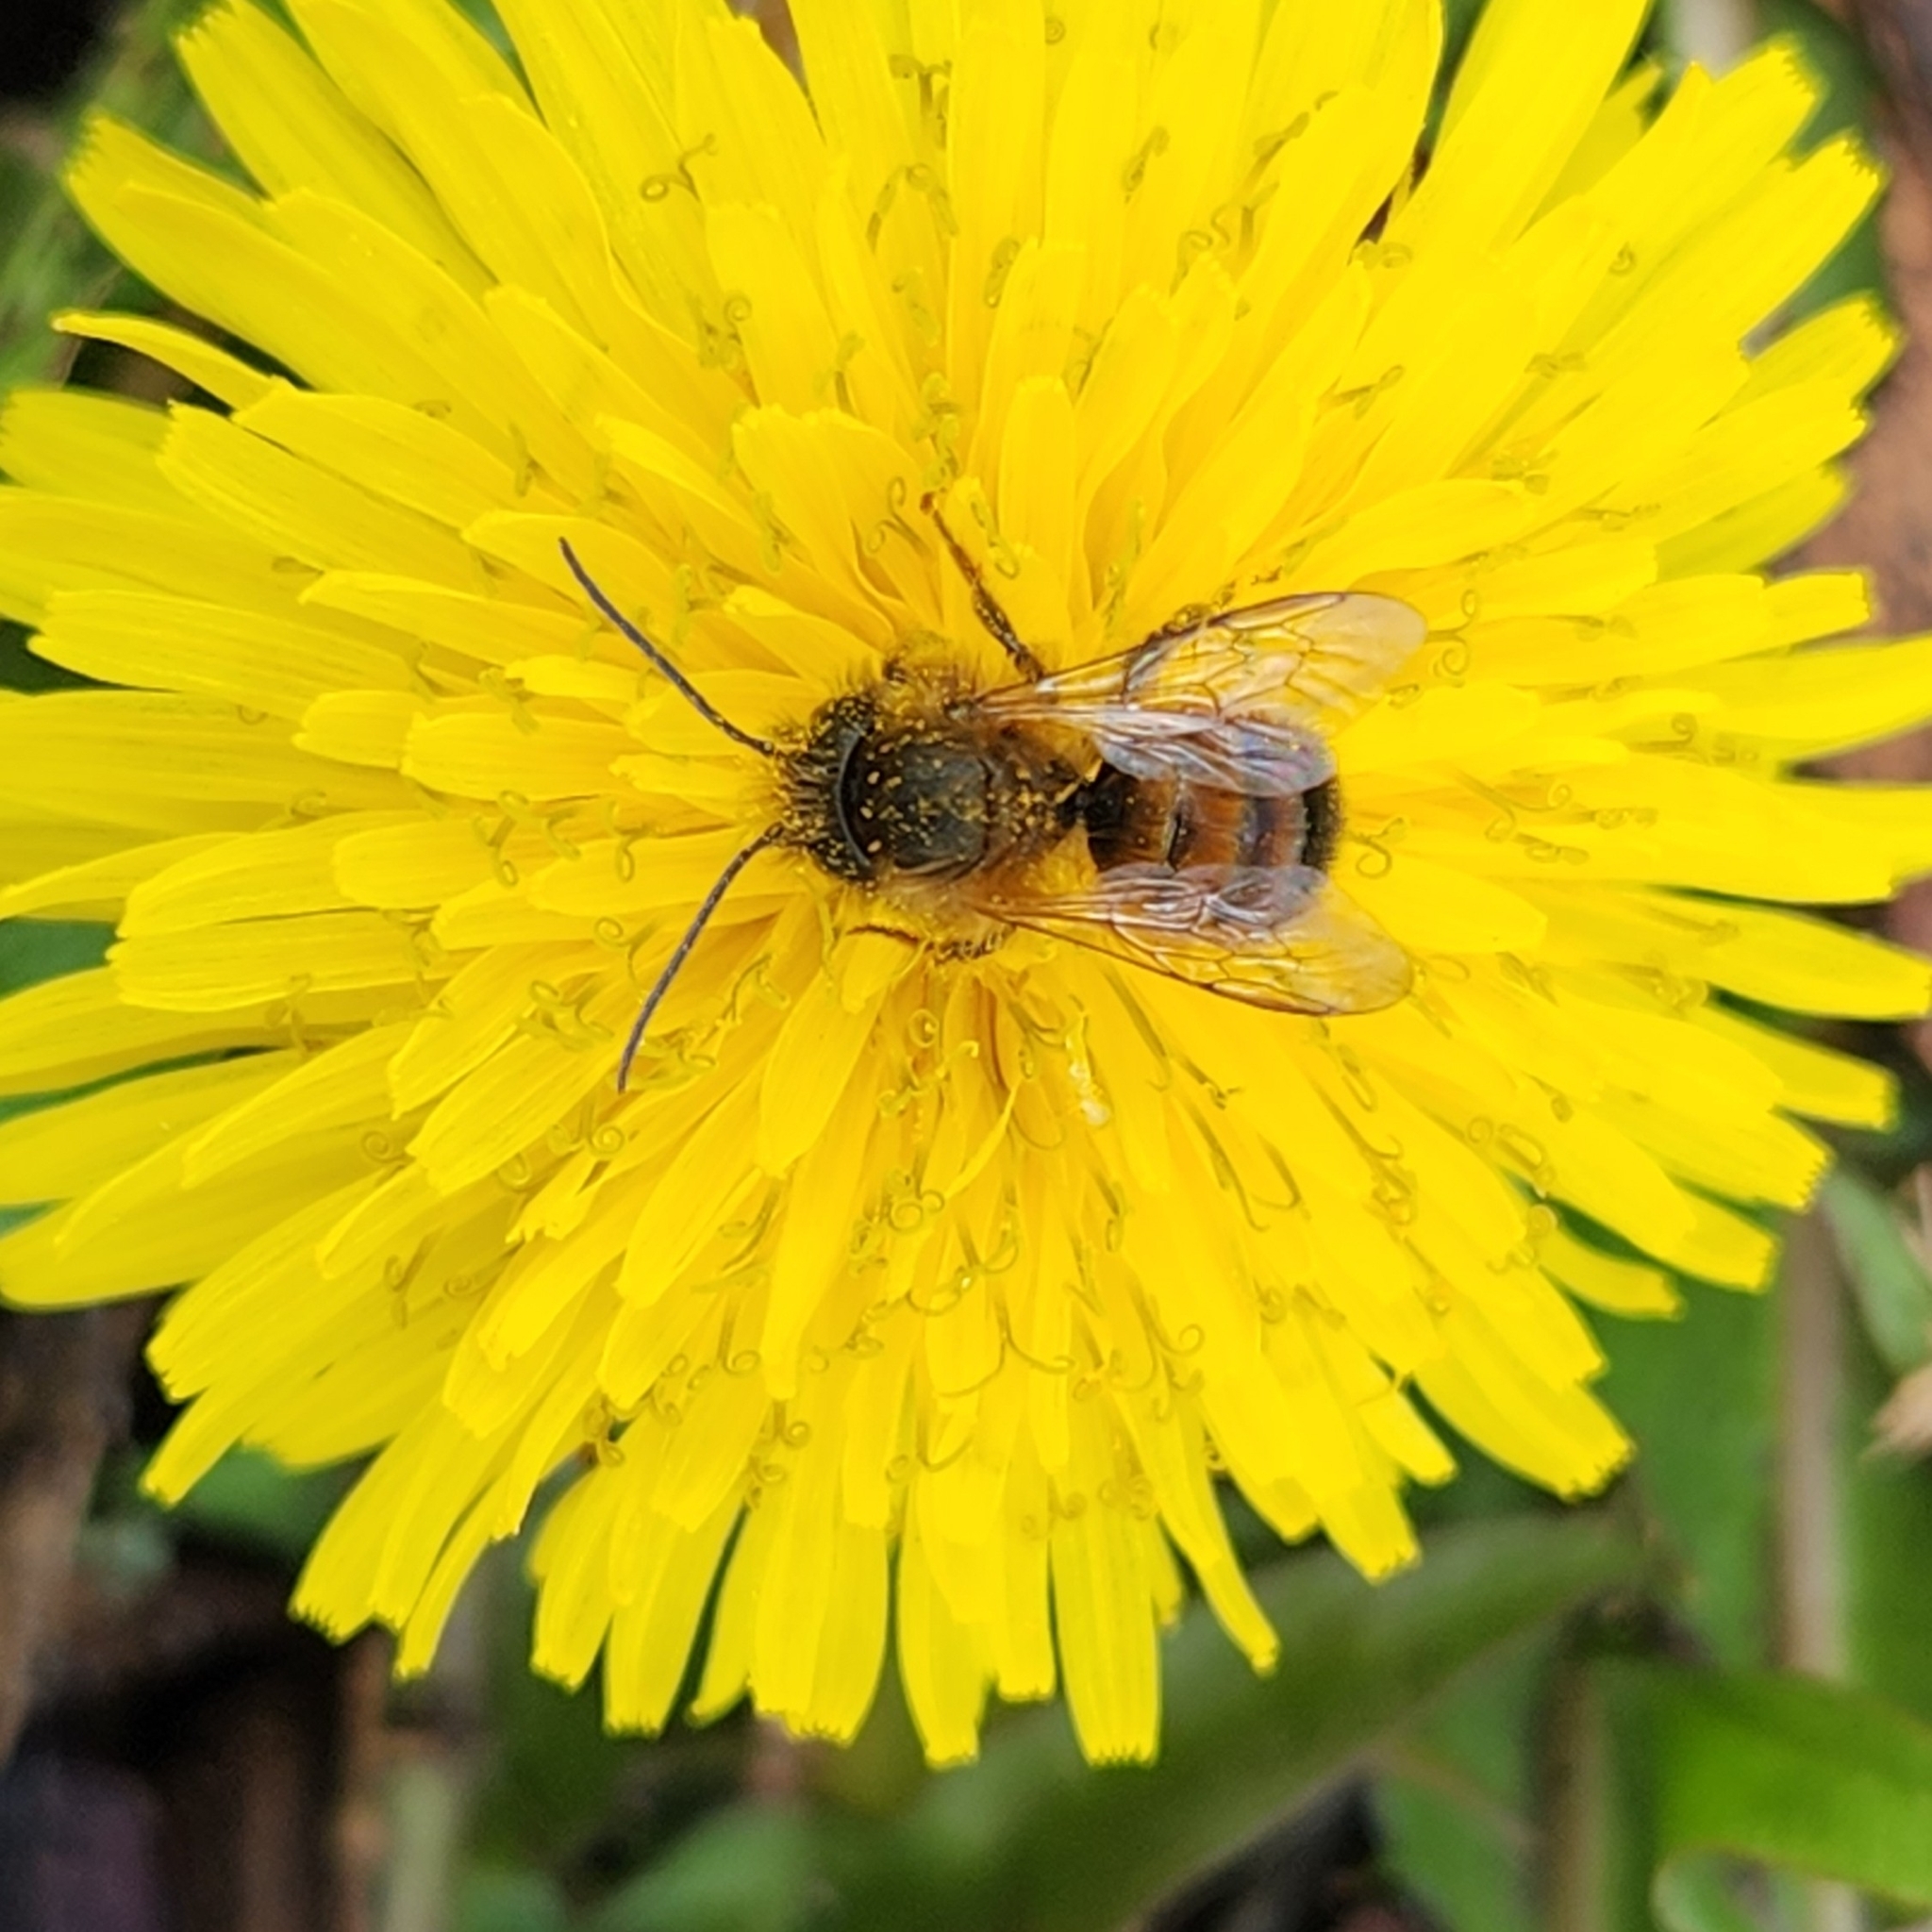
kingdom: Animalia
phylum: Arthropoda
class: Insecta
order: Hymenoptera
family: Megachilidae
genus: Osmia
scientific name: Osmia bicornis
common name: Red mason bee
